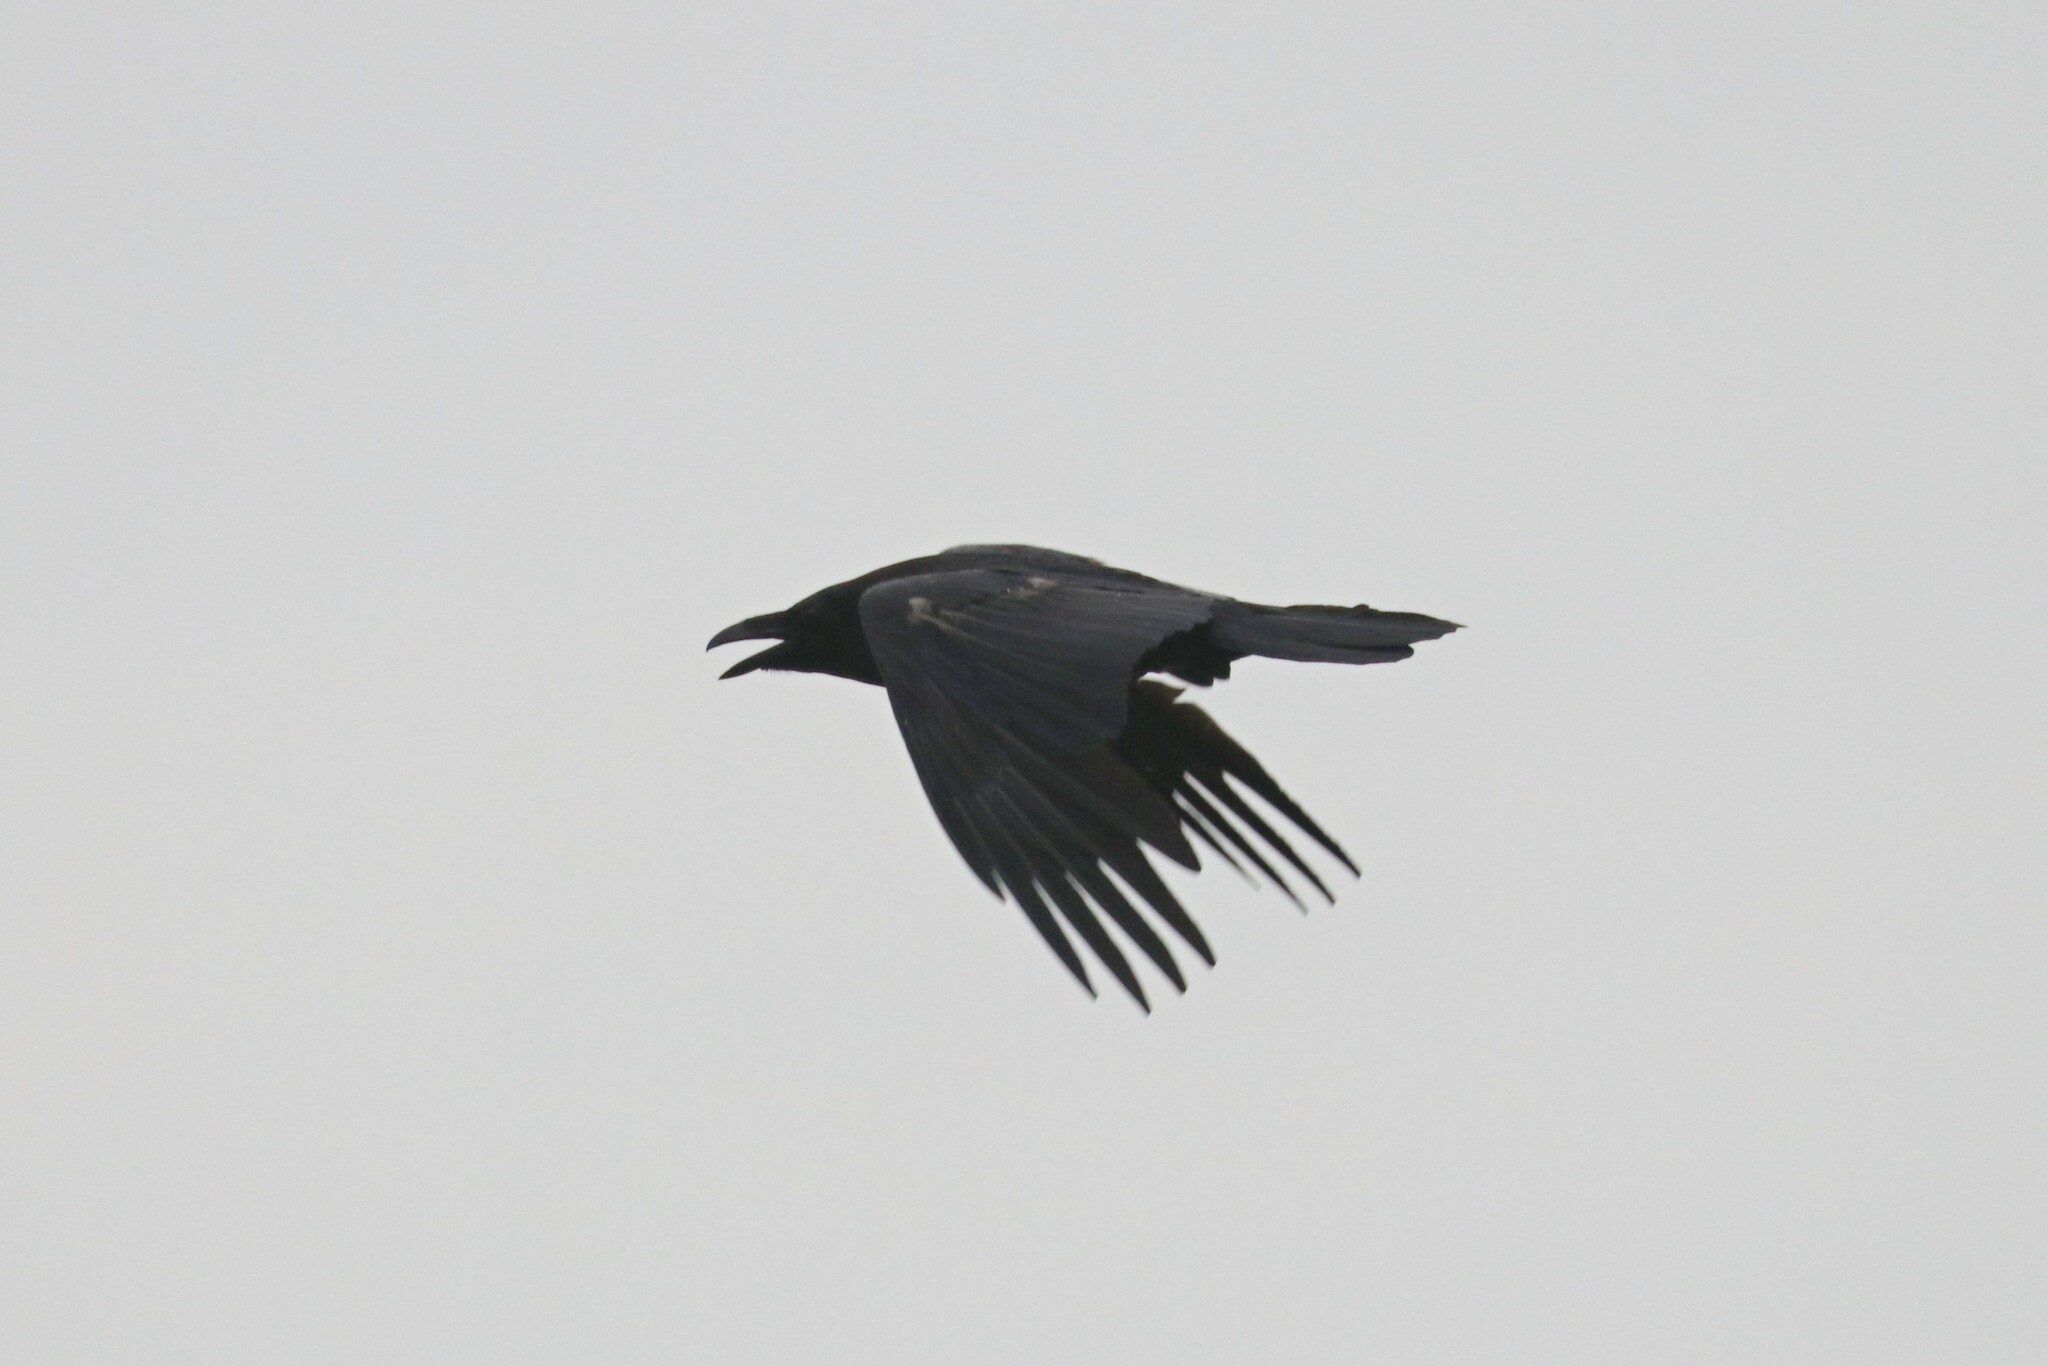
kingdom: Animalia
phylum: Chordata
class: Aves
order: Passeriformes
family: Corvidae
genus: Corvus
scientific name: Corvus corax
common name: Common raven
